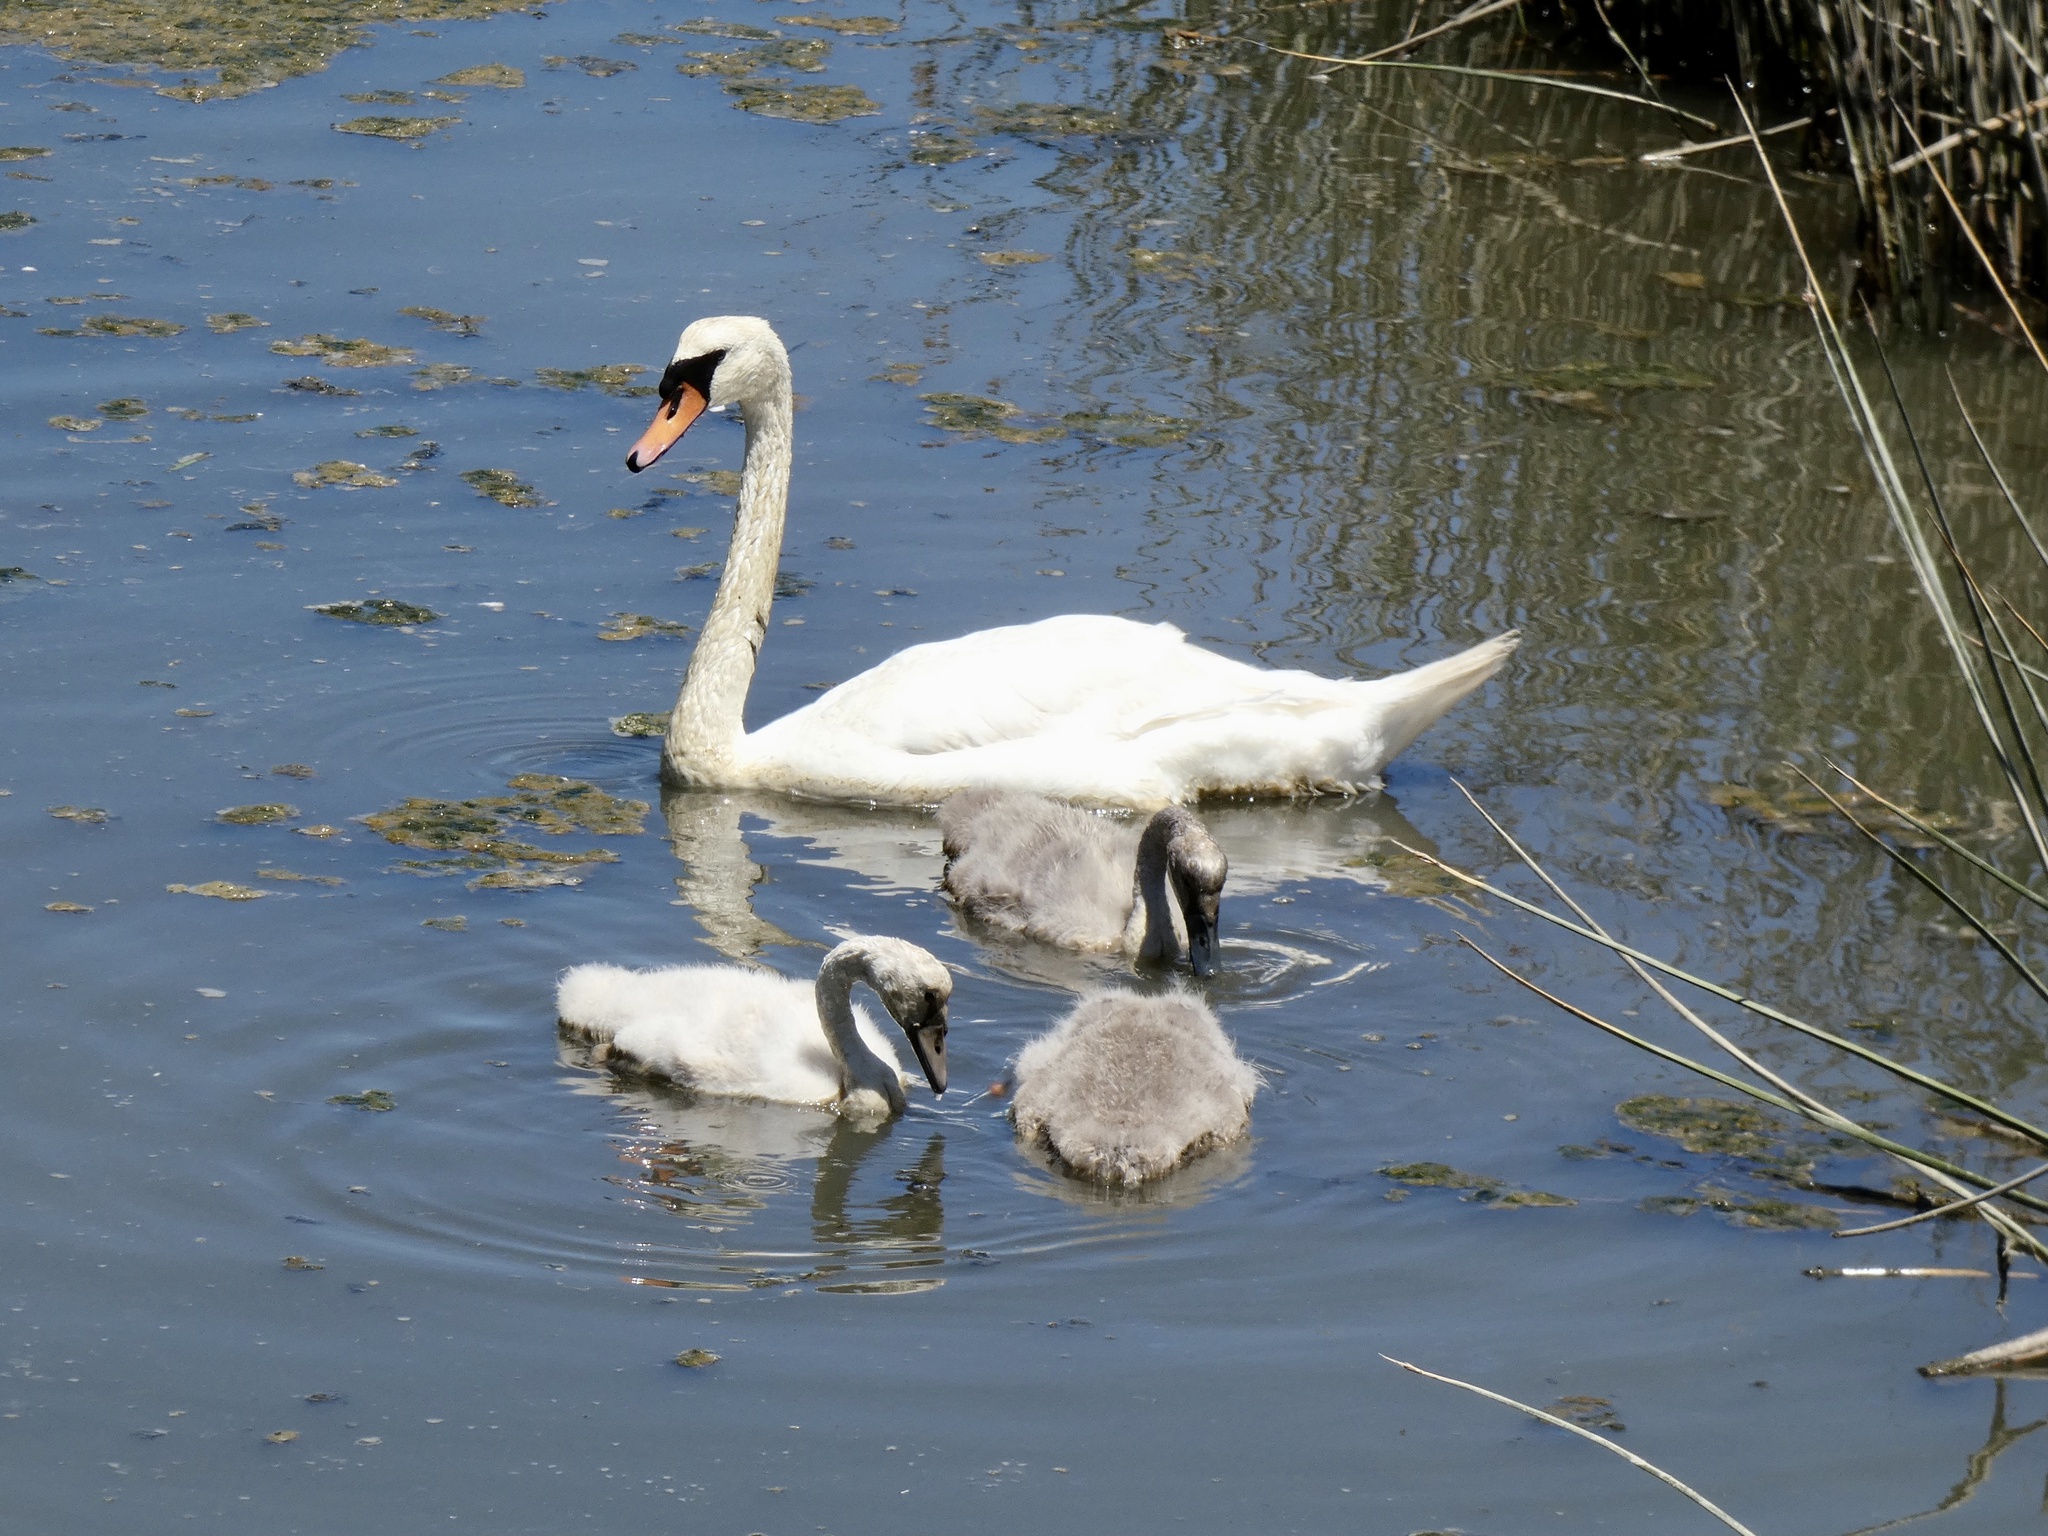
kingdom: Animalia
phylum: Chordata
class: Aves
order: Anseriformes
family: Anatidae
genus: Cygnus
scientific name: Cygnus olor
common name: Mute swan
